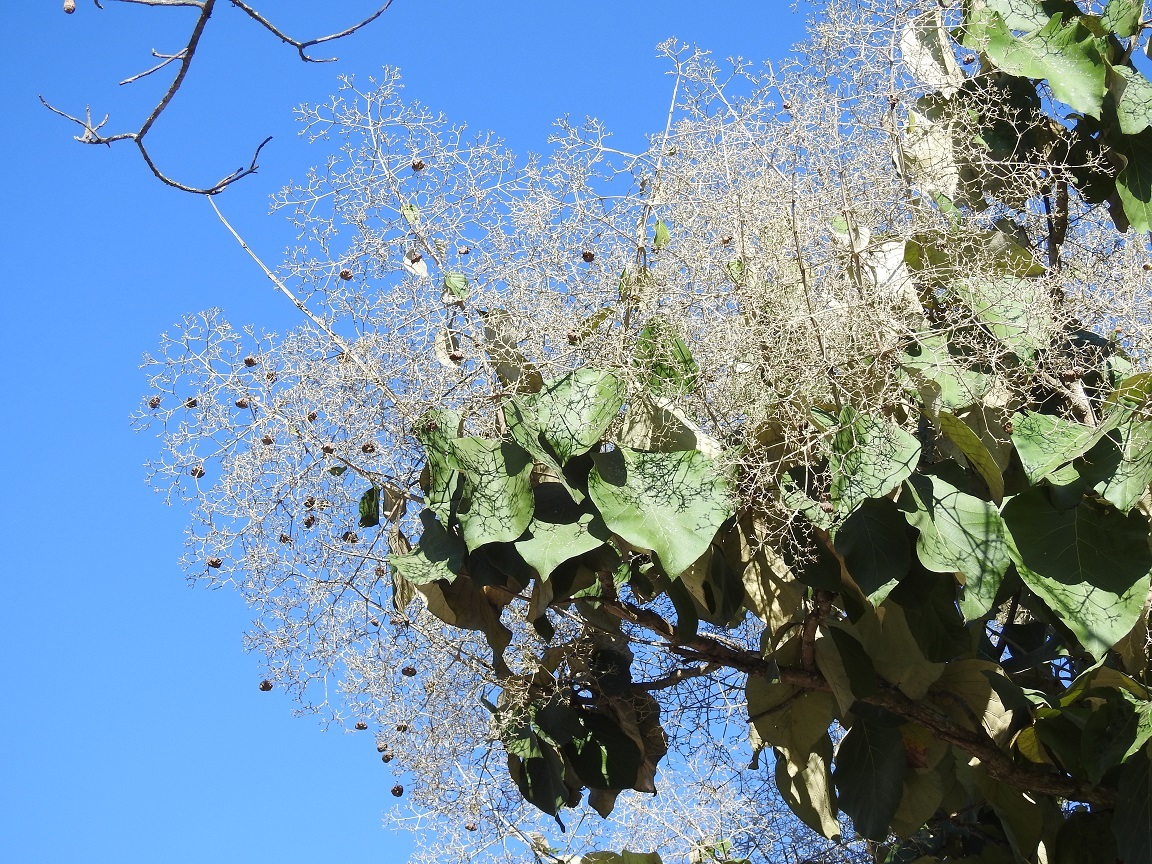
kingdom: Plantae
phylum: Tracheophyta
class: Magnoliopsida
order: Lamiales
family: Lamiaceae
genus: Tectona
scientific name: Tectona grandis
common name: Teak
